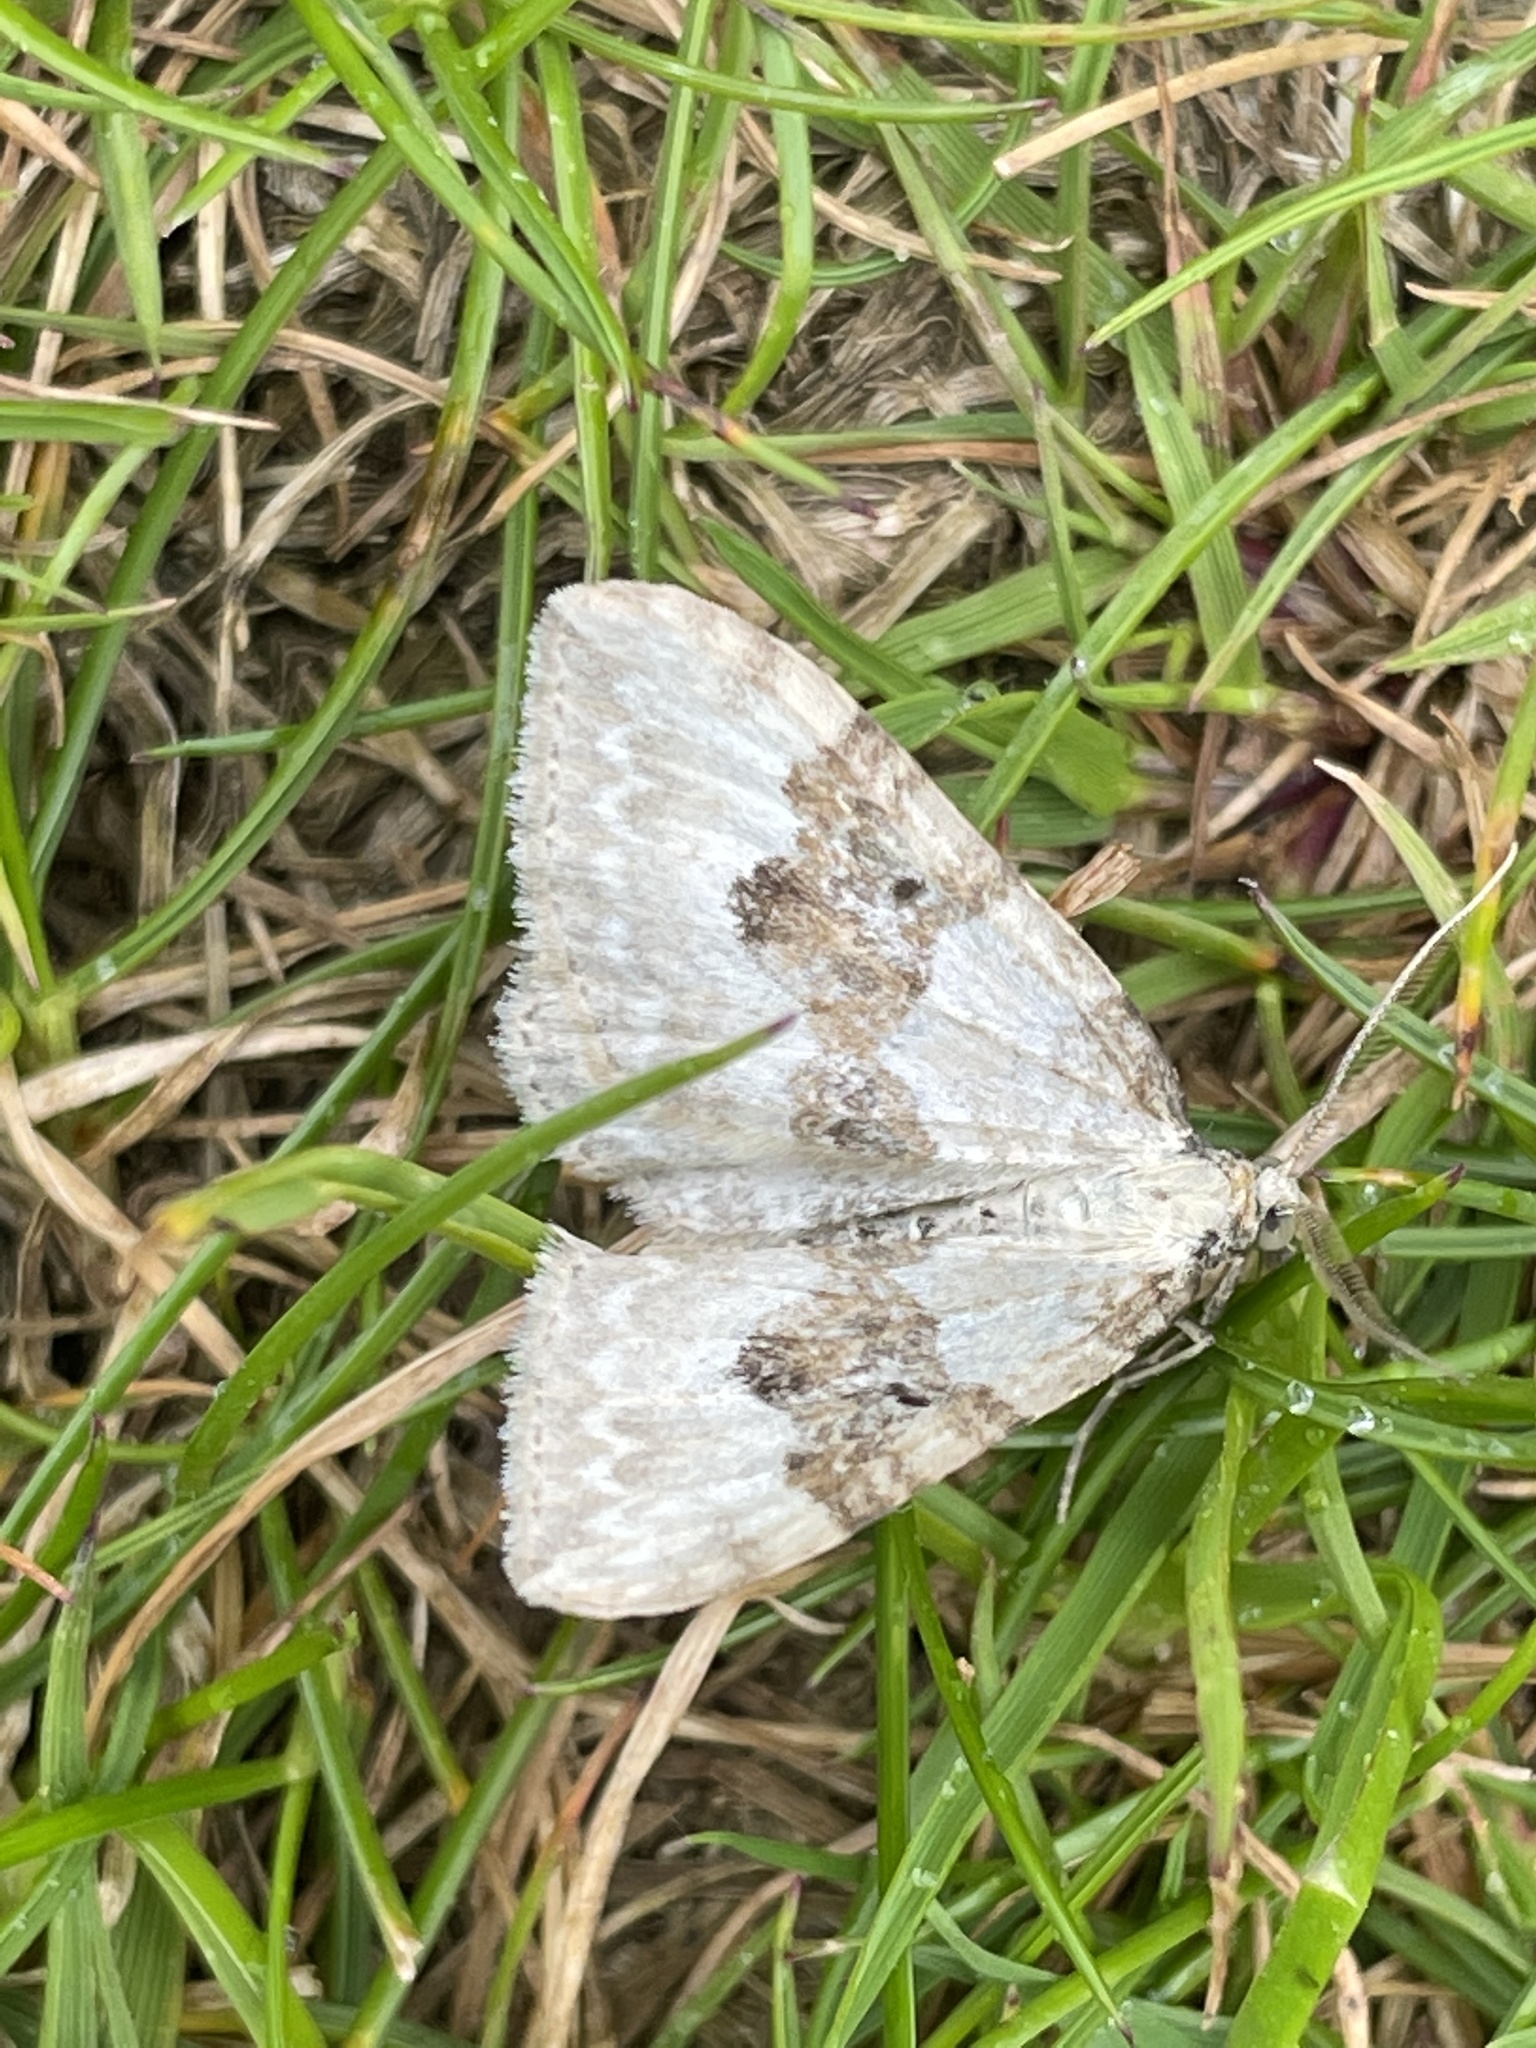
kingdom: Animalia
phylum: Arthropoda
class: Insecta
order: Lepidoptera
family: Geometridae
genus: Xanthorhoe
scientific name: Xanthorhoe montanata
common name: Silver-ground carpet
